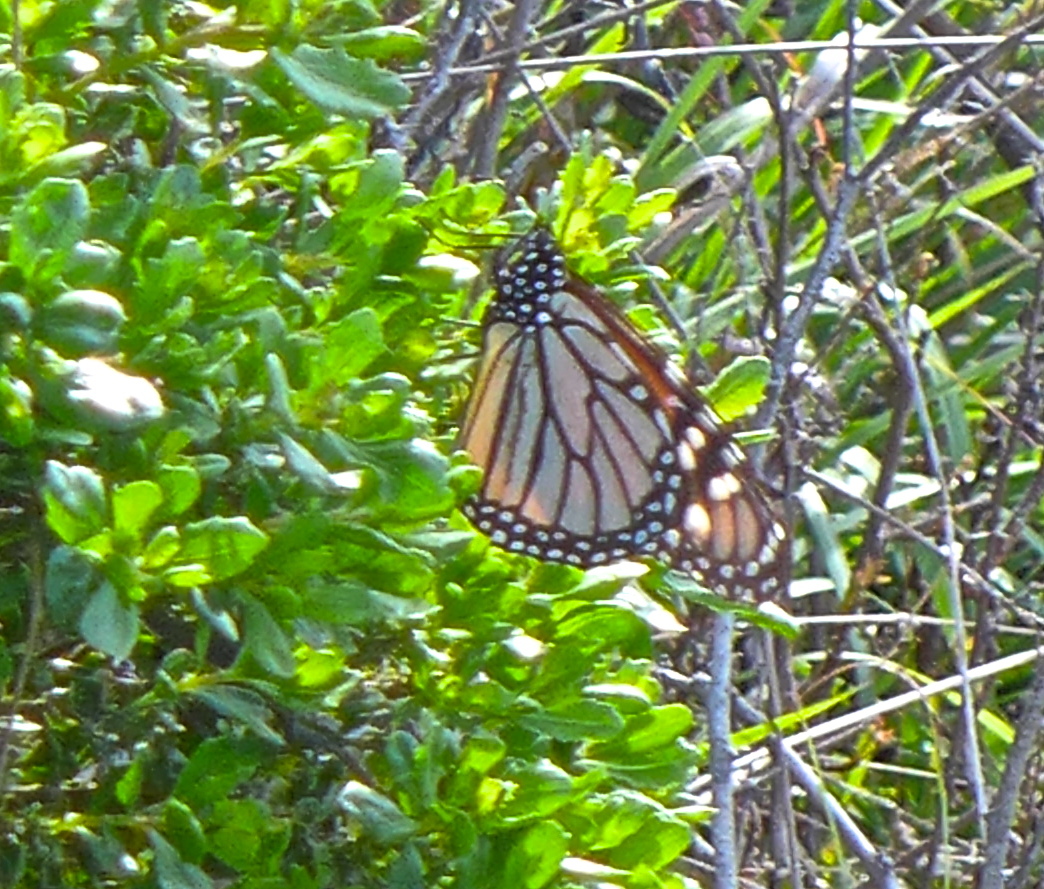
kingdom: Animalia
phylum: Arthropoda
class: Insecta
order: Lepidoptera
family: Nymphalidae
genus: Danaus
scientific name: Danaus plexippus
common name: Monarch
